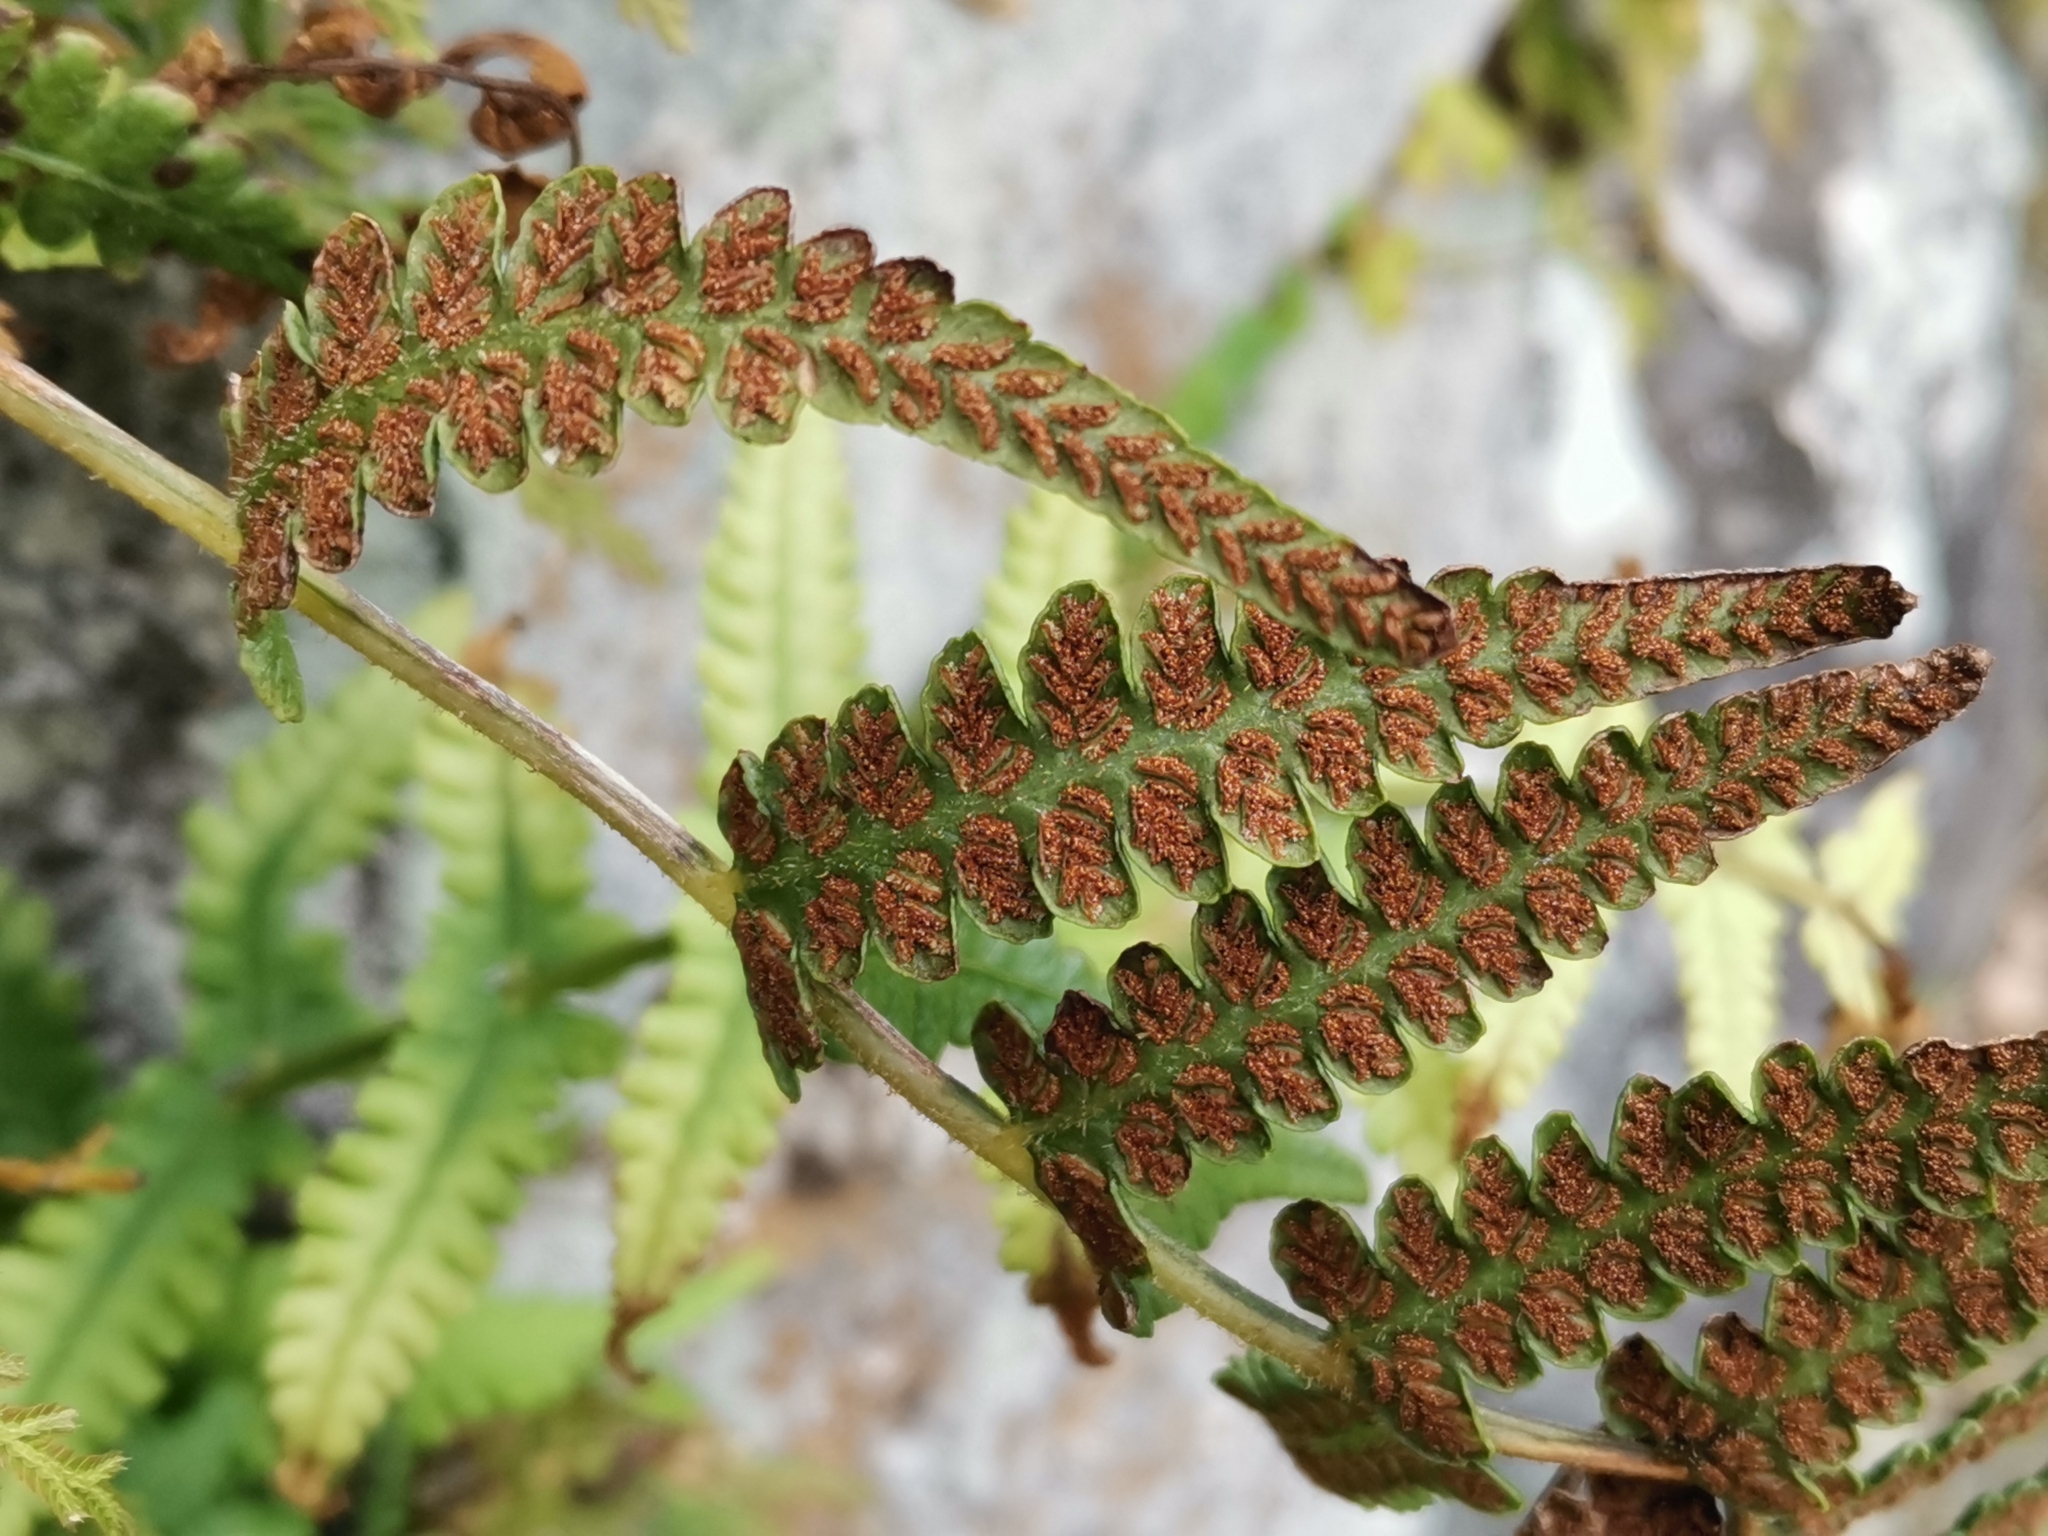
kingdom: Plantae
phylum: Tracheophyta
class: Polypodiopsida
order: Polypodiales
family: Athyriaceae
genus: Deparia
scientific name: Deparia petersenii
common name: Japanese false spleenwort
